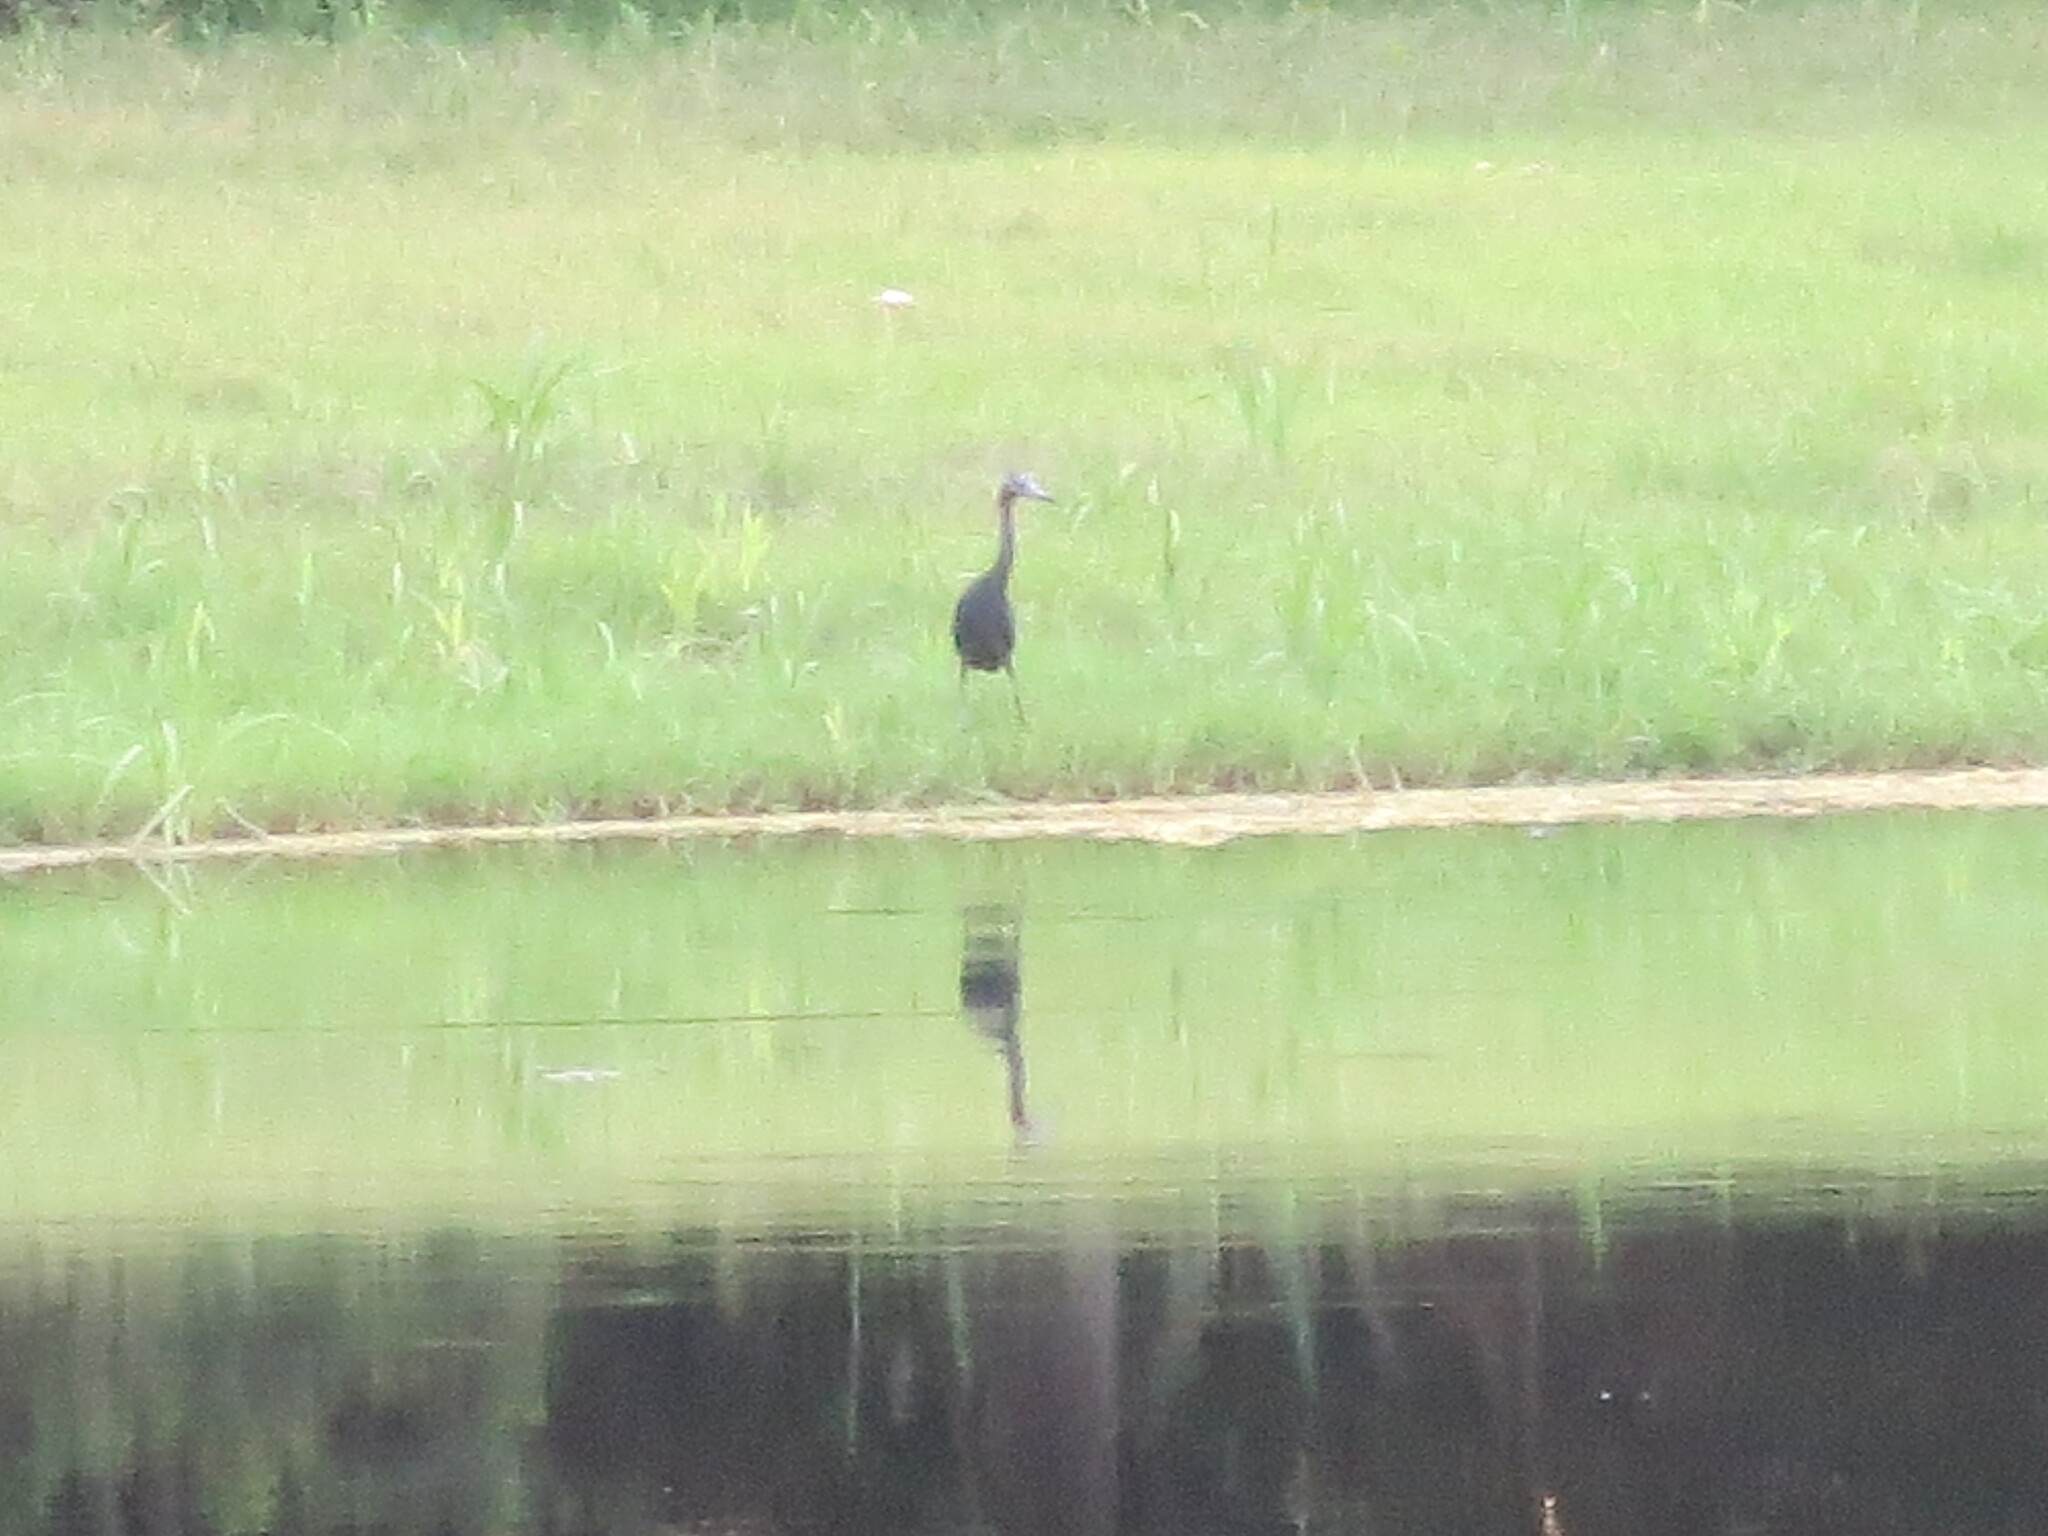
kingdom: Animalia
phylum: Chordata
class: Aves
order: Pelecaniformes
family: Ardeidae
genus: Egretta
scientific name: Egretta caerulea
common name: Little blue heron
